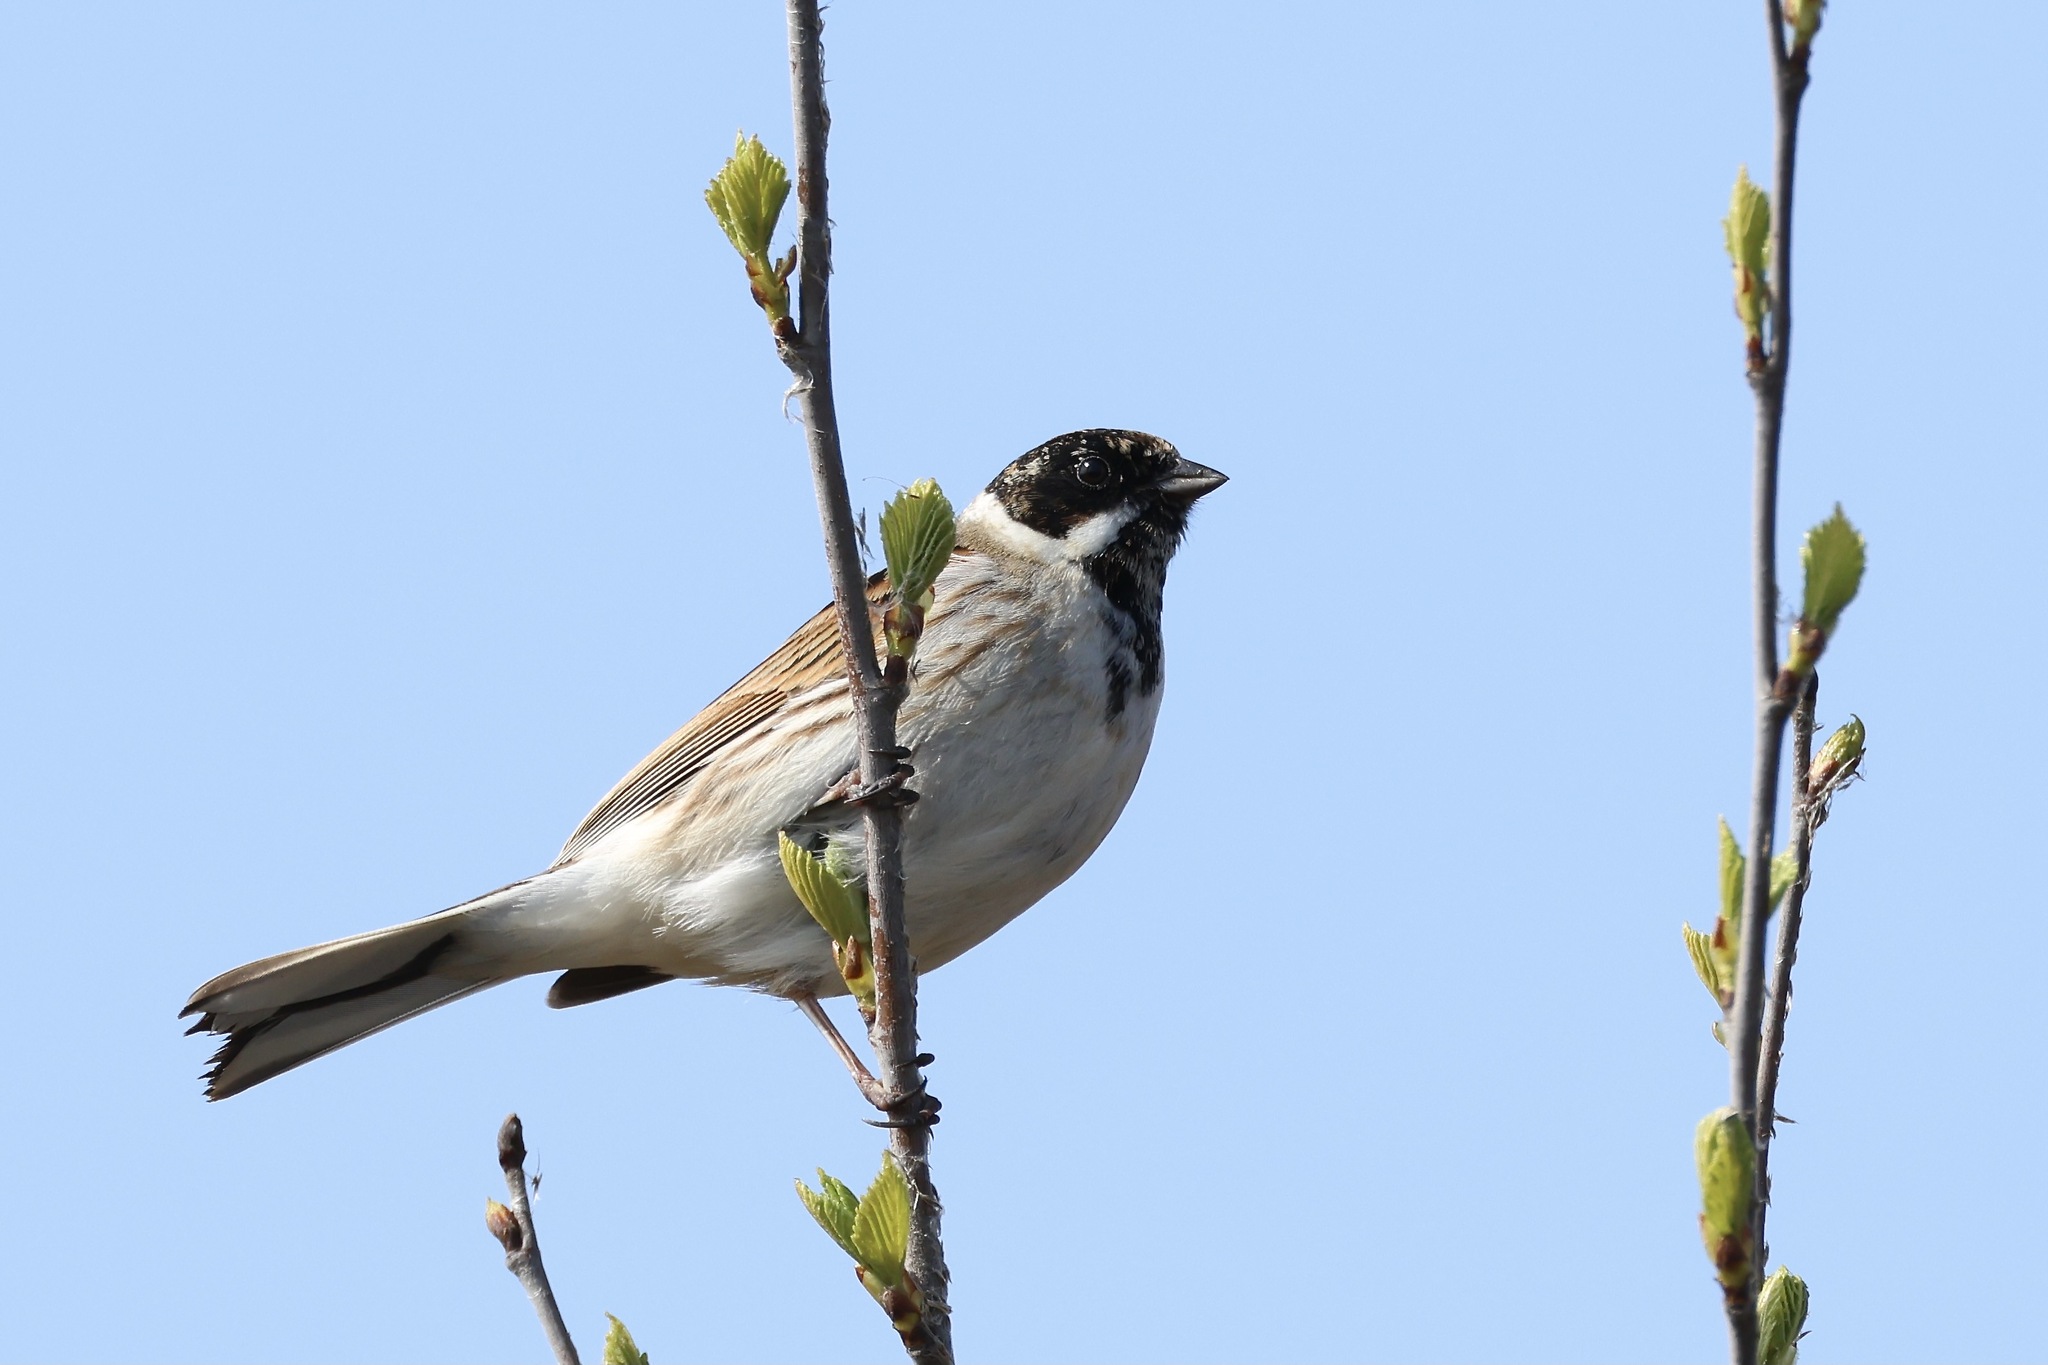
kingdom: Animalia
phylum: Chordata
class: Aves
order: Passeriformes
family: Emberizidae
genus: Emberiza
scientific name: Emberiza schoeniclus
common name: Reed bunting
